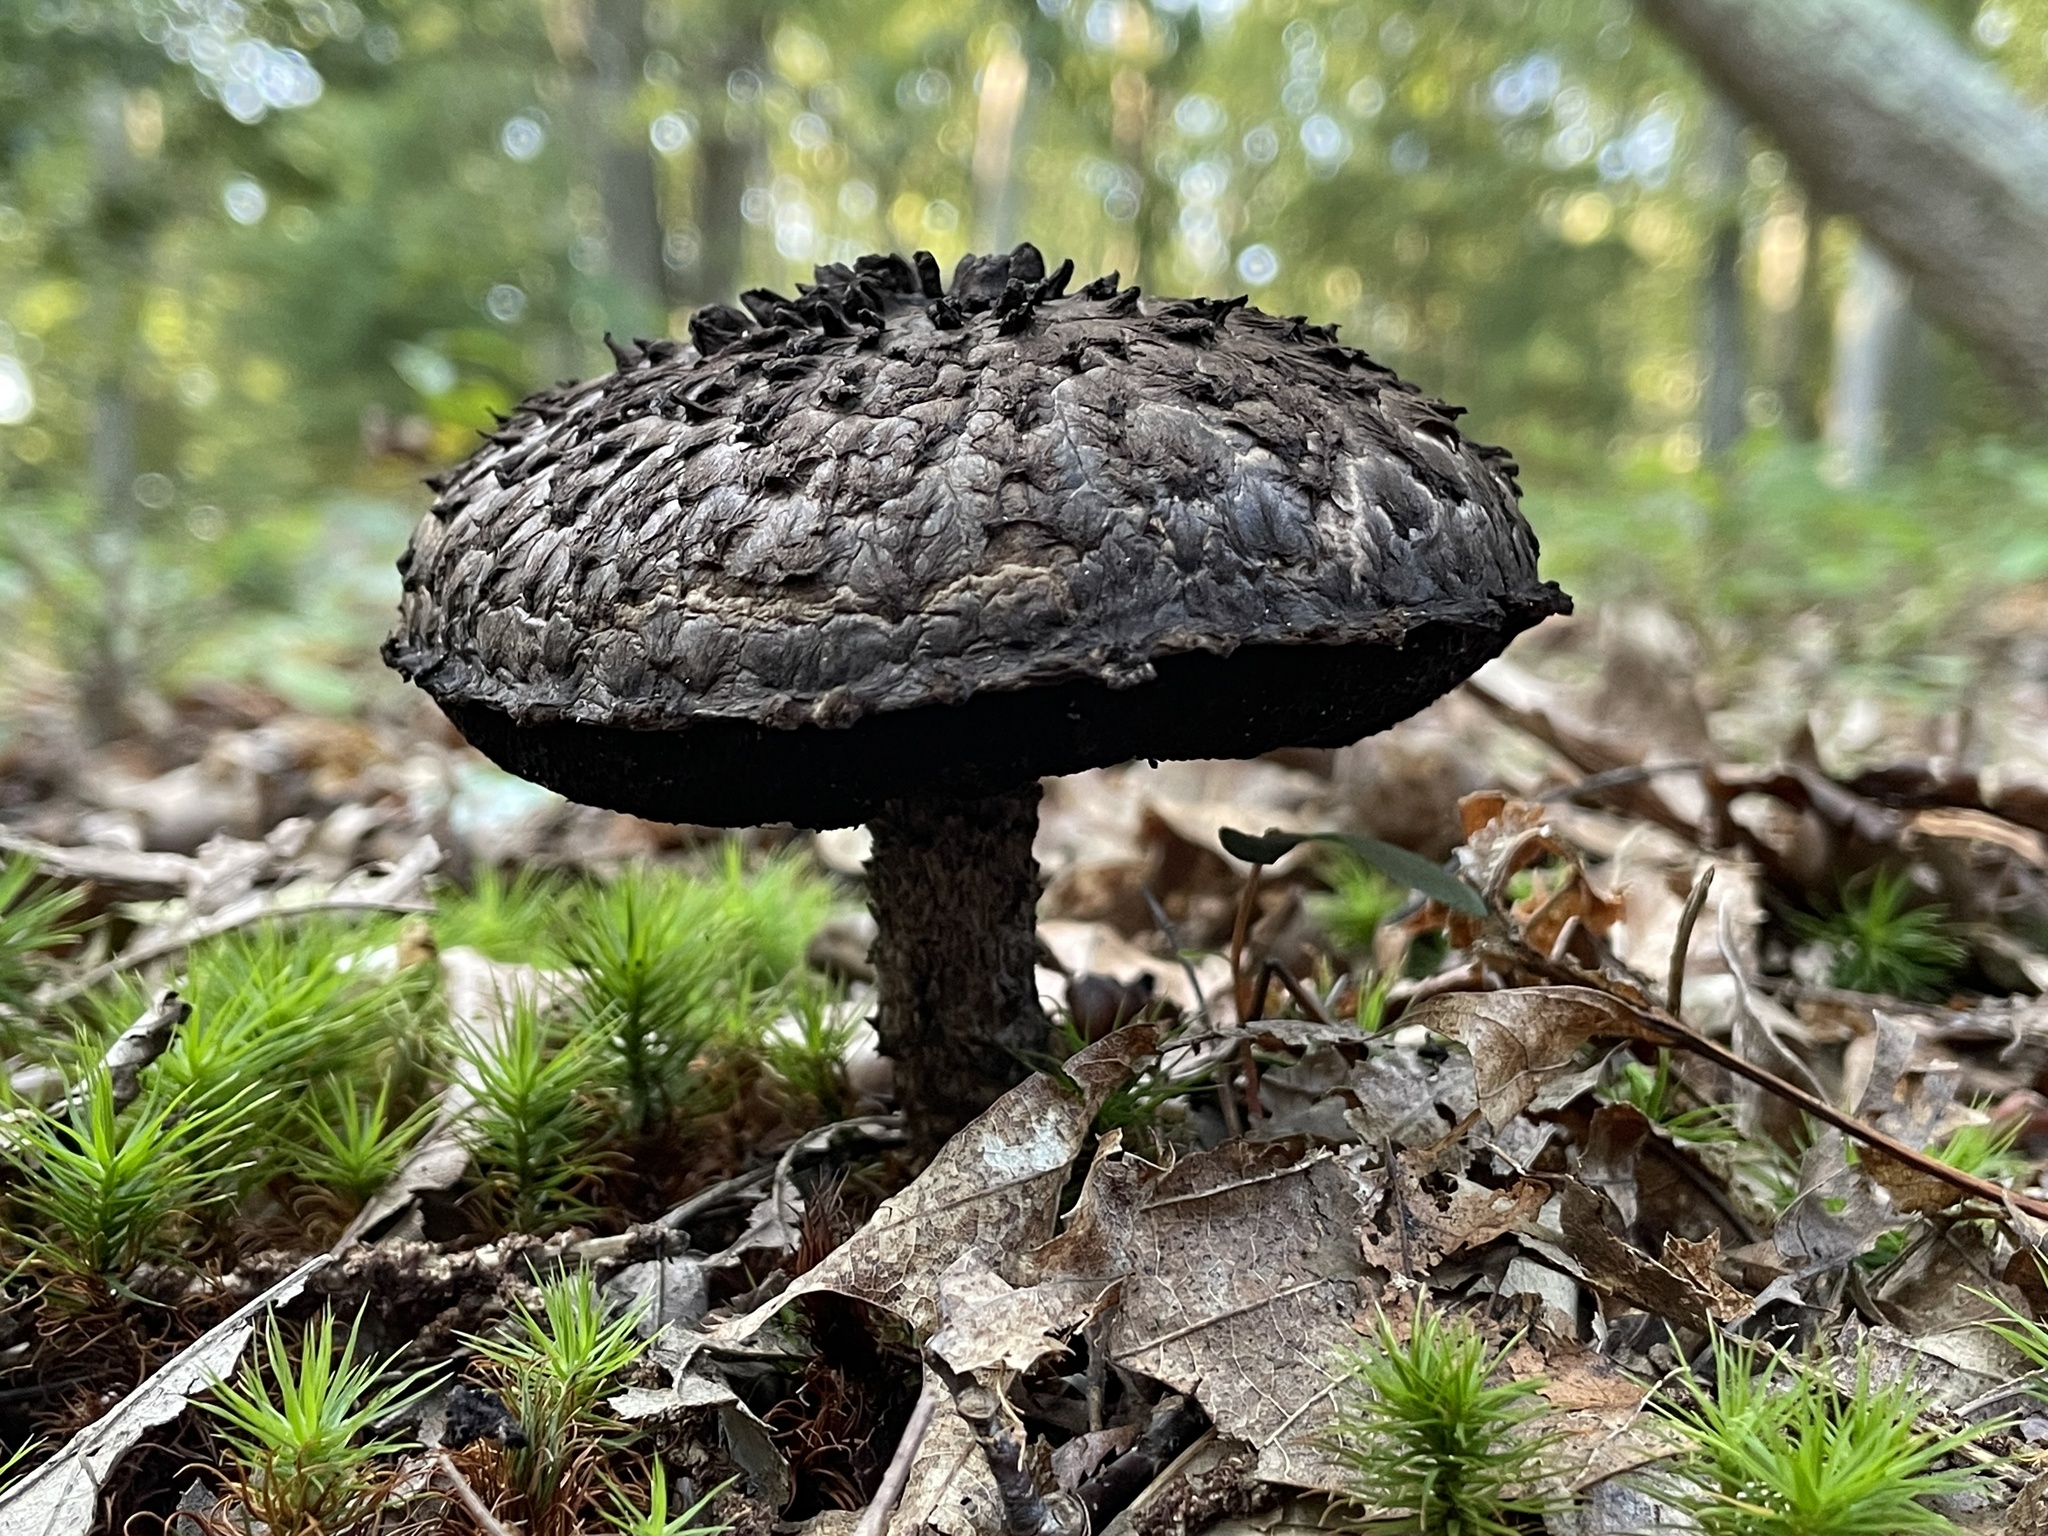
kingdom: Fungi
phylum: Basidiomycota
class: Agaricomycetes
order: Boletales
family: Boletaceae
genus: Strobilomyces
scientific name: Strobilomyces strobilaceus
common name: Old man of the woods
